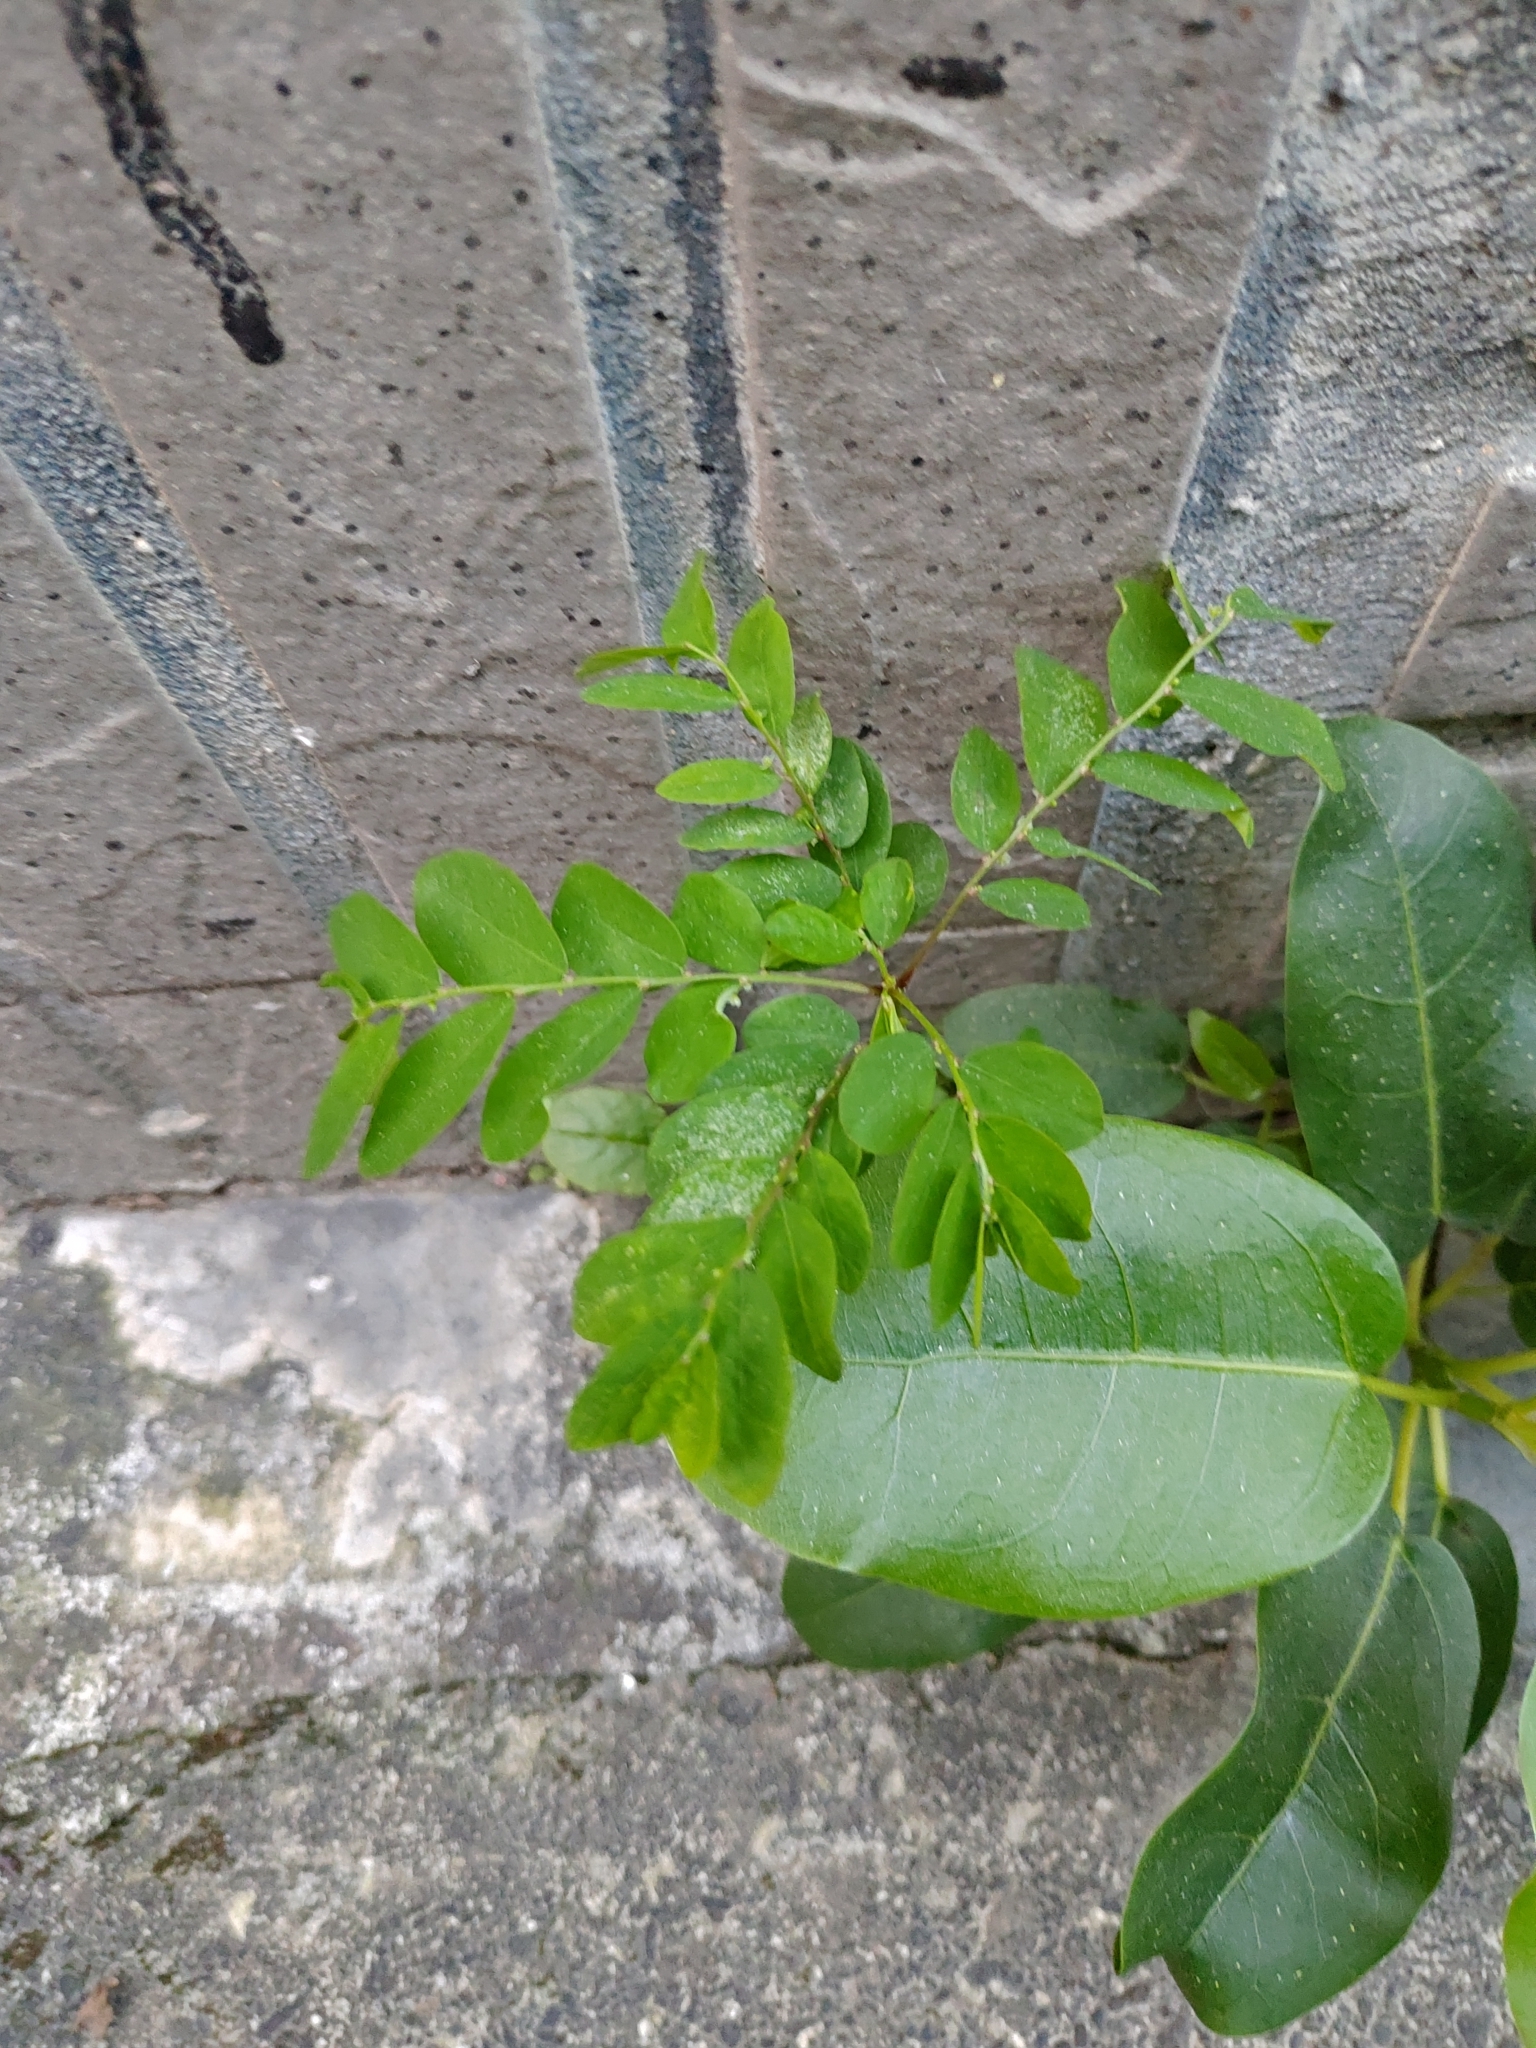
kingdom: Plantae
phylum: Tracheophyta
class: Magnoliopsida
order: Malpighiales
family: Phyllanthaceae
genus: Phyllanthus
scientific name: Phyllanthus tenellus
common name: Mascarene island leaf-flower
